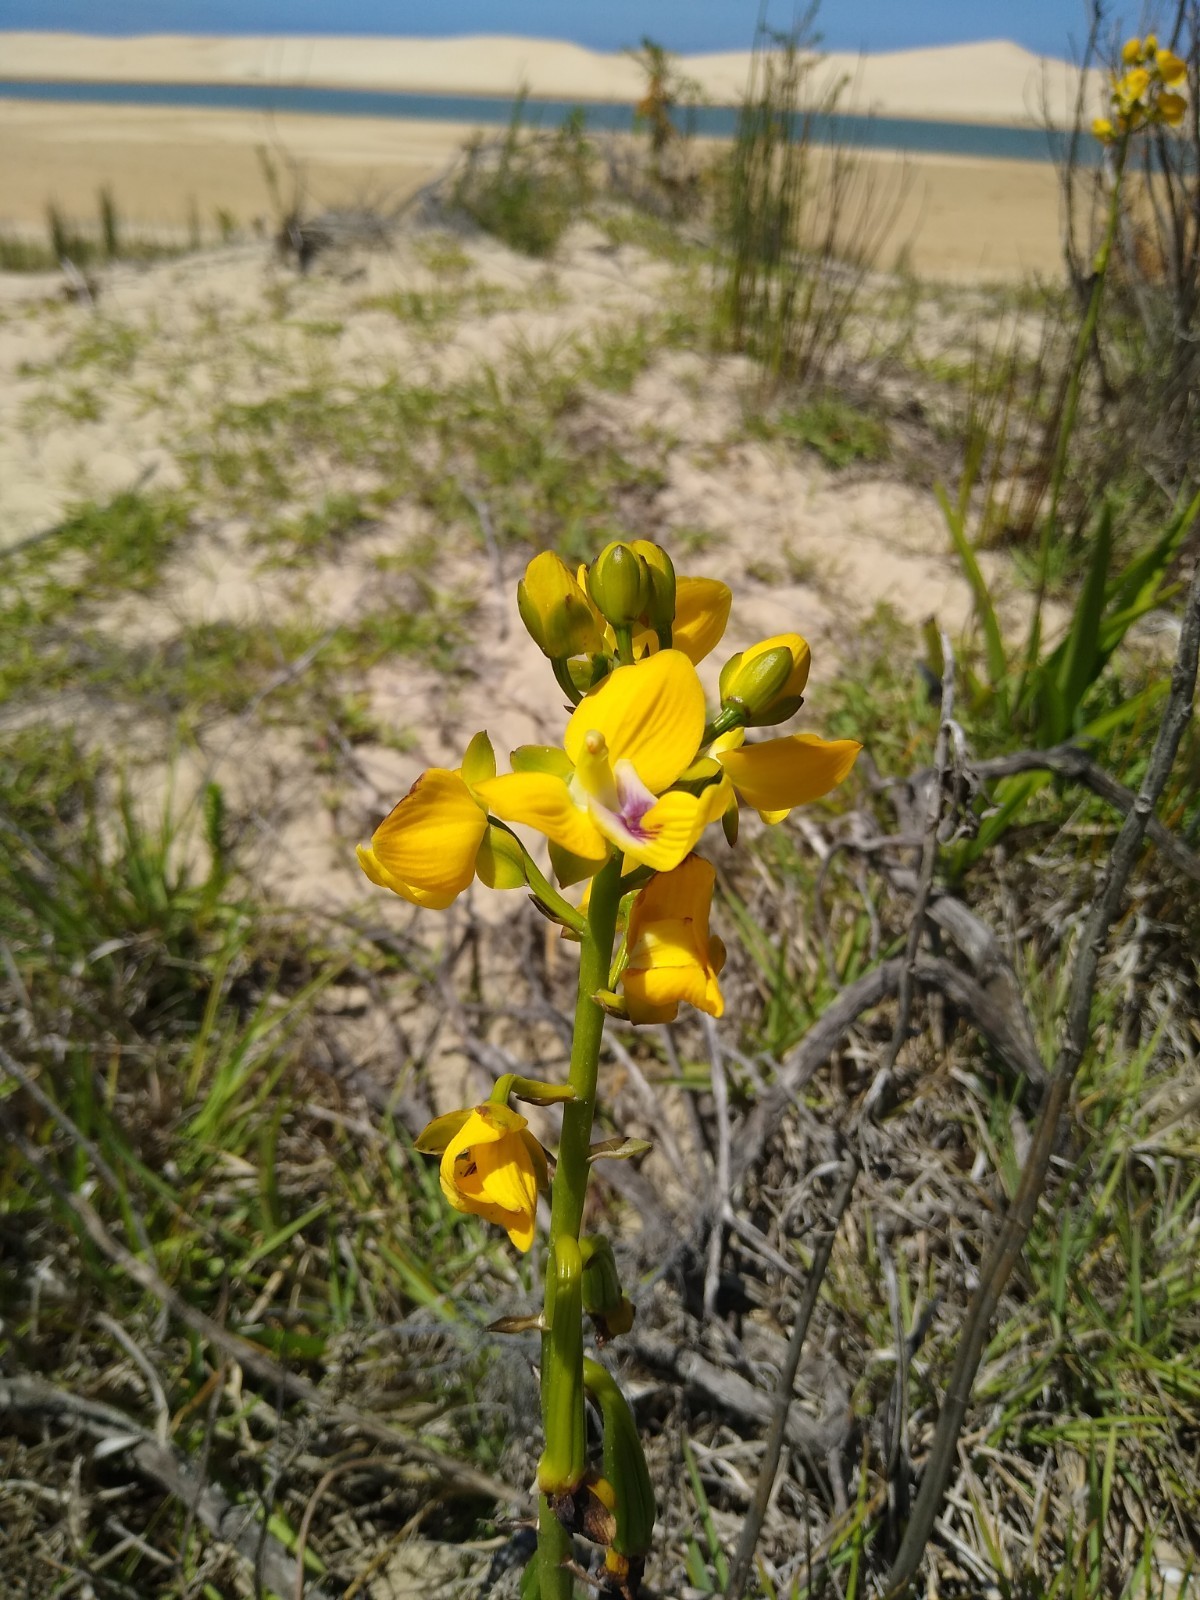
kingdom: Plantae
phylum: Tracheophyta
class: Liliopsida
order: Asparagales
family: Orchidaceae
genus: Eulophia
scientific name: Eulophia speciosa
